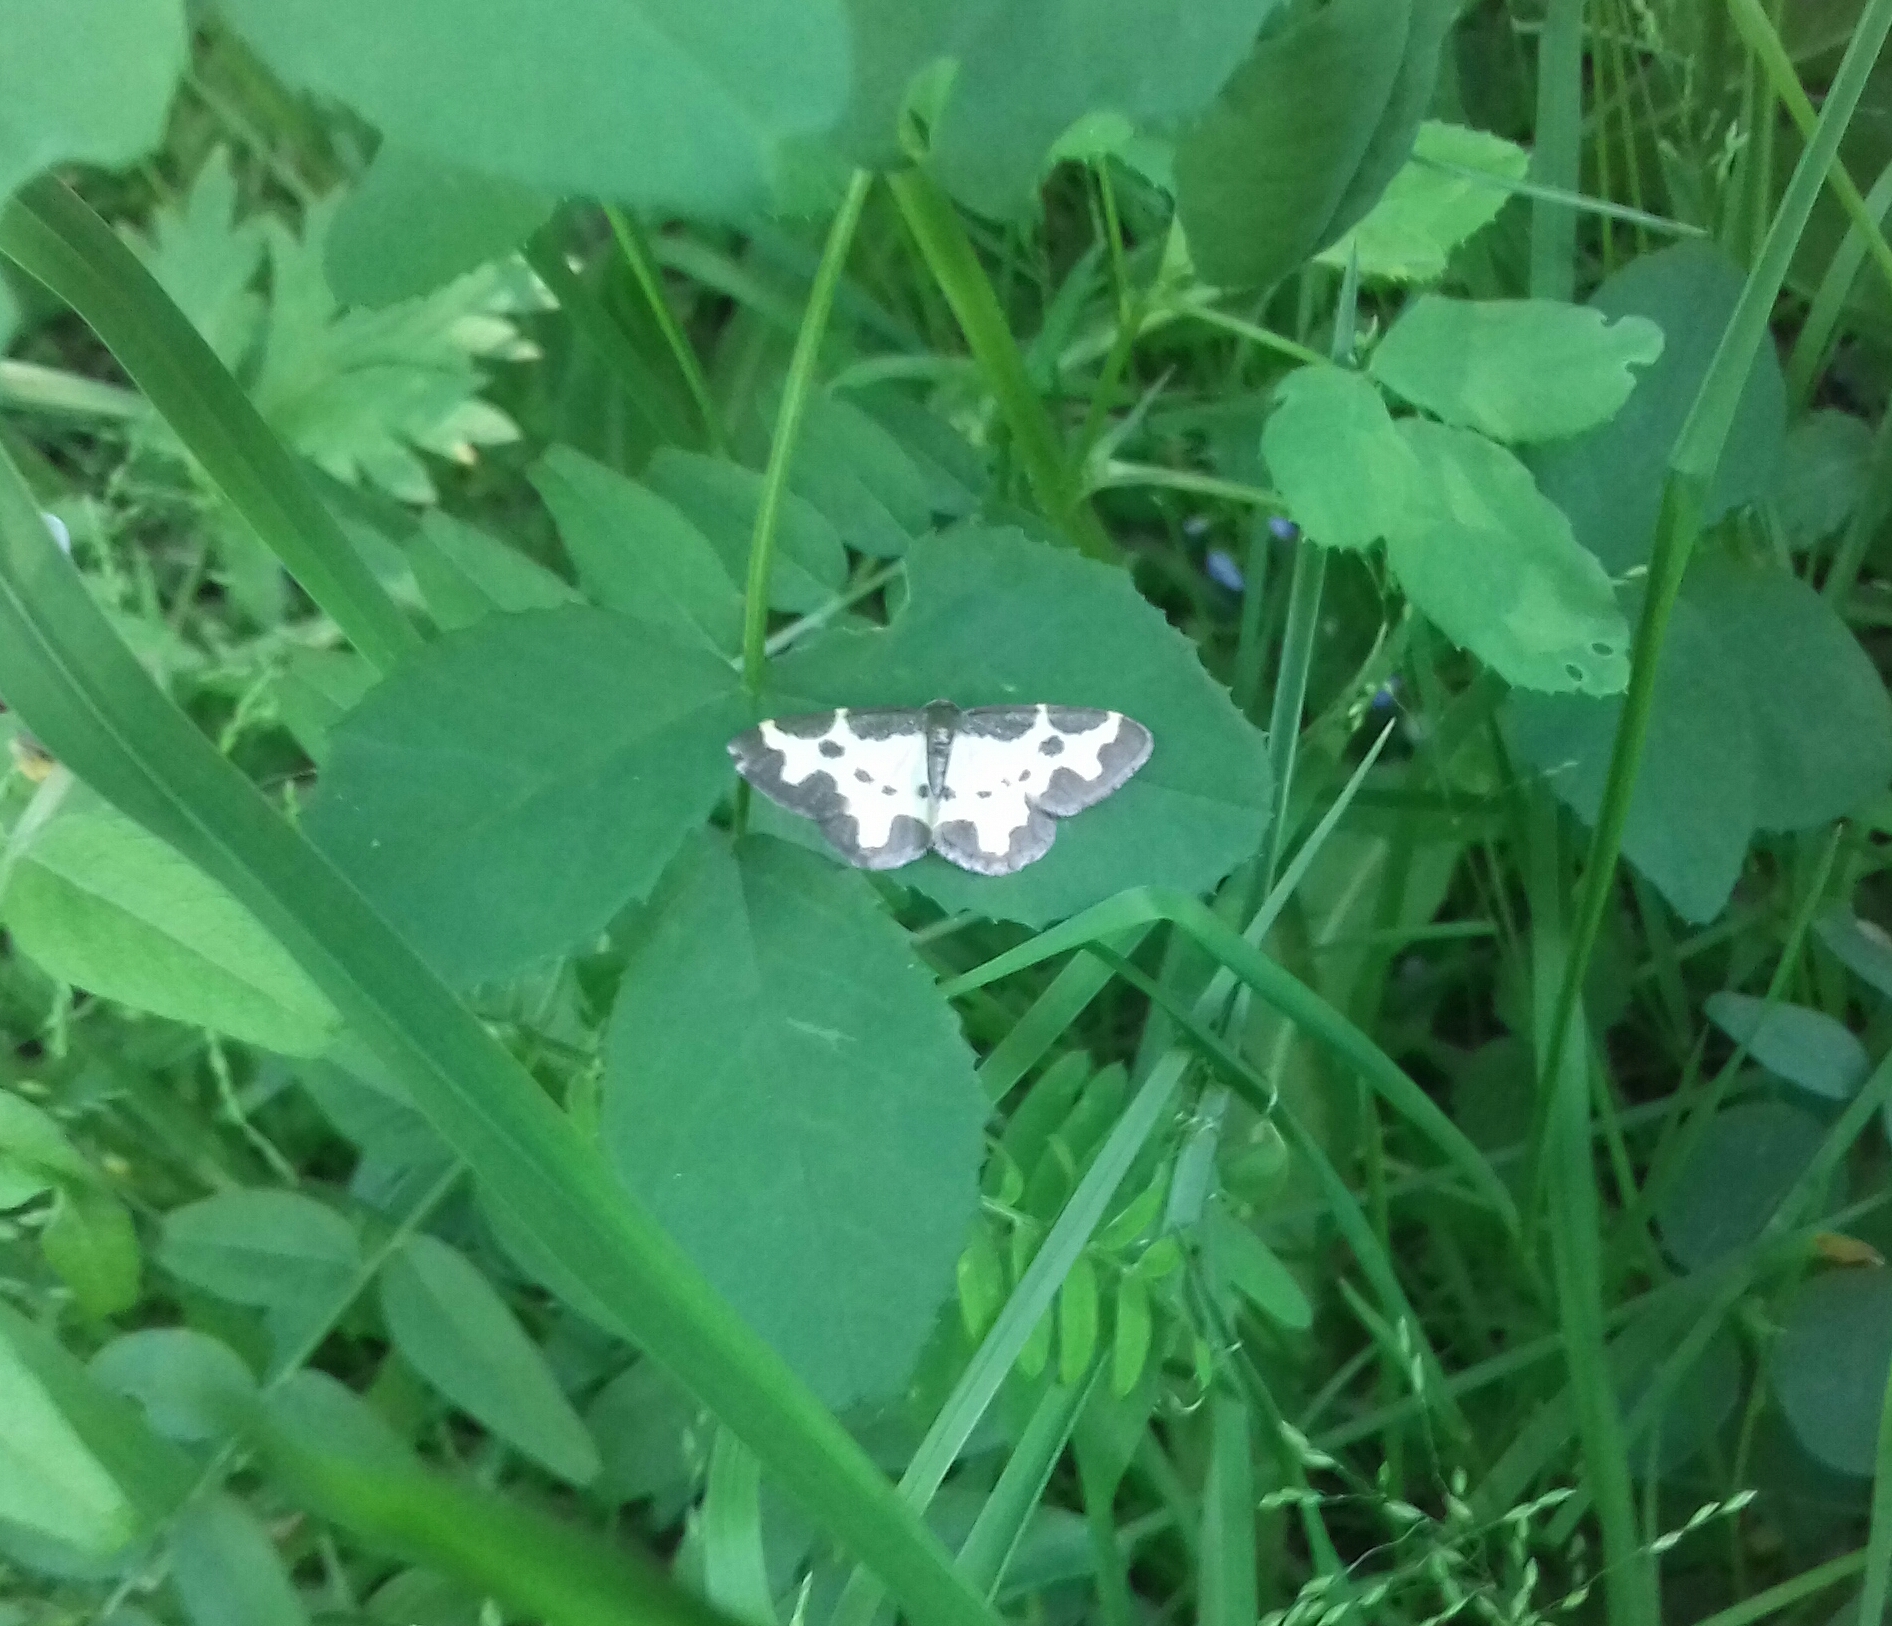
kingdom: Animalia
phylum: Arthropoda
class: Insecta
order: Lepidoptera
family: Geometridae
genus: Lomaspilis
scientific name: Lomaspilis marginata
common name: Clouded border
